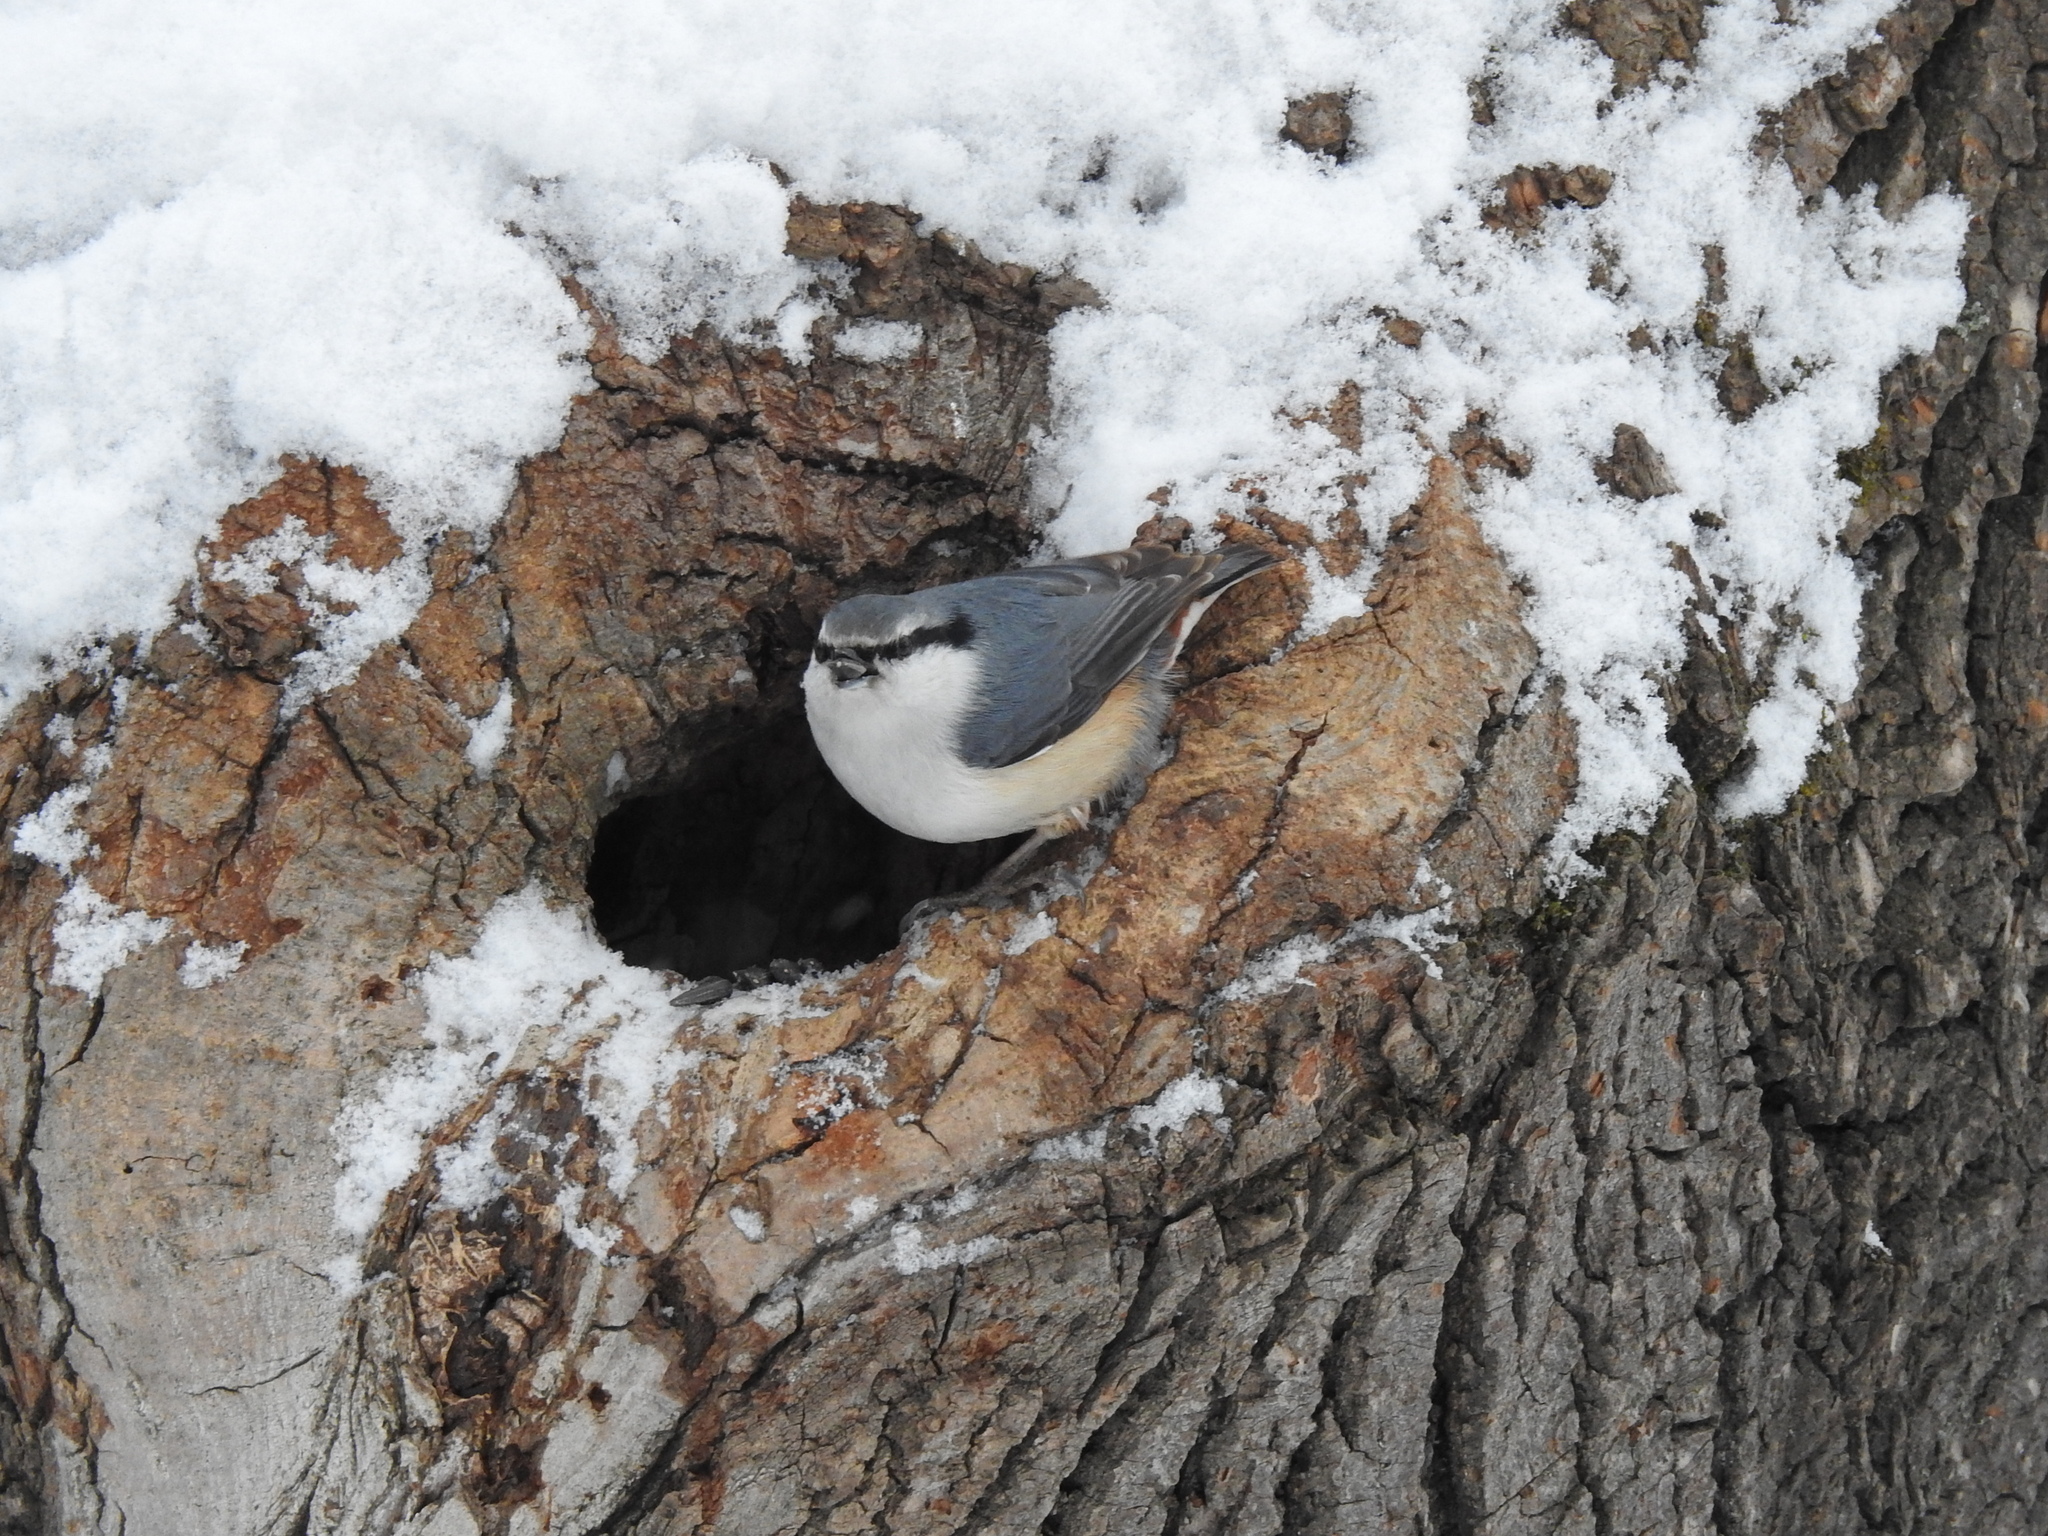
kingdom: Animalia
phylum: Chordata
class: Aves
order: Passeriformes
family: Sittidae
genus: Sitta
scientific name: Sitta europaea
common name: Eurasian nuthatch
